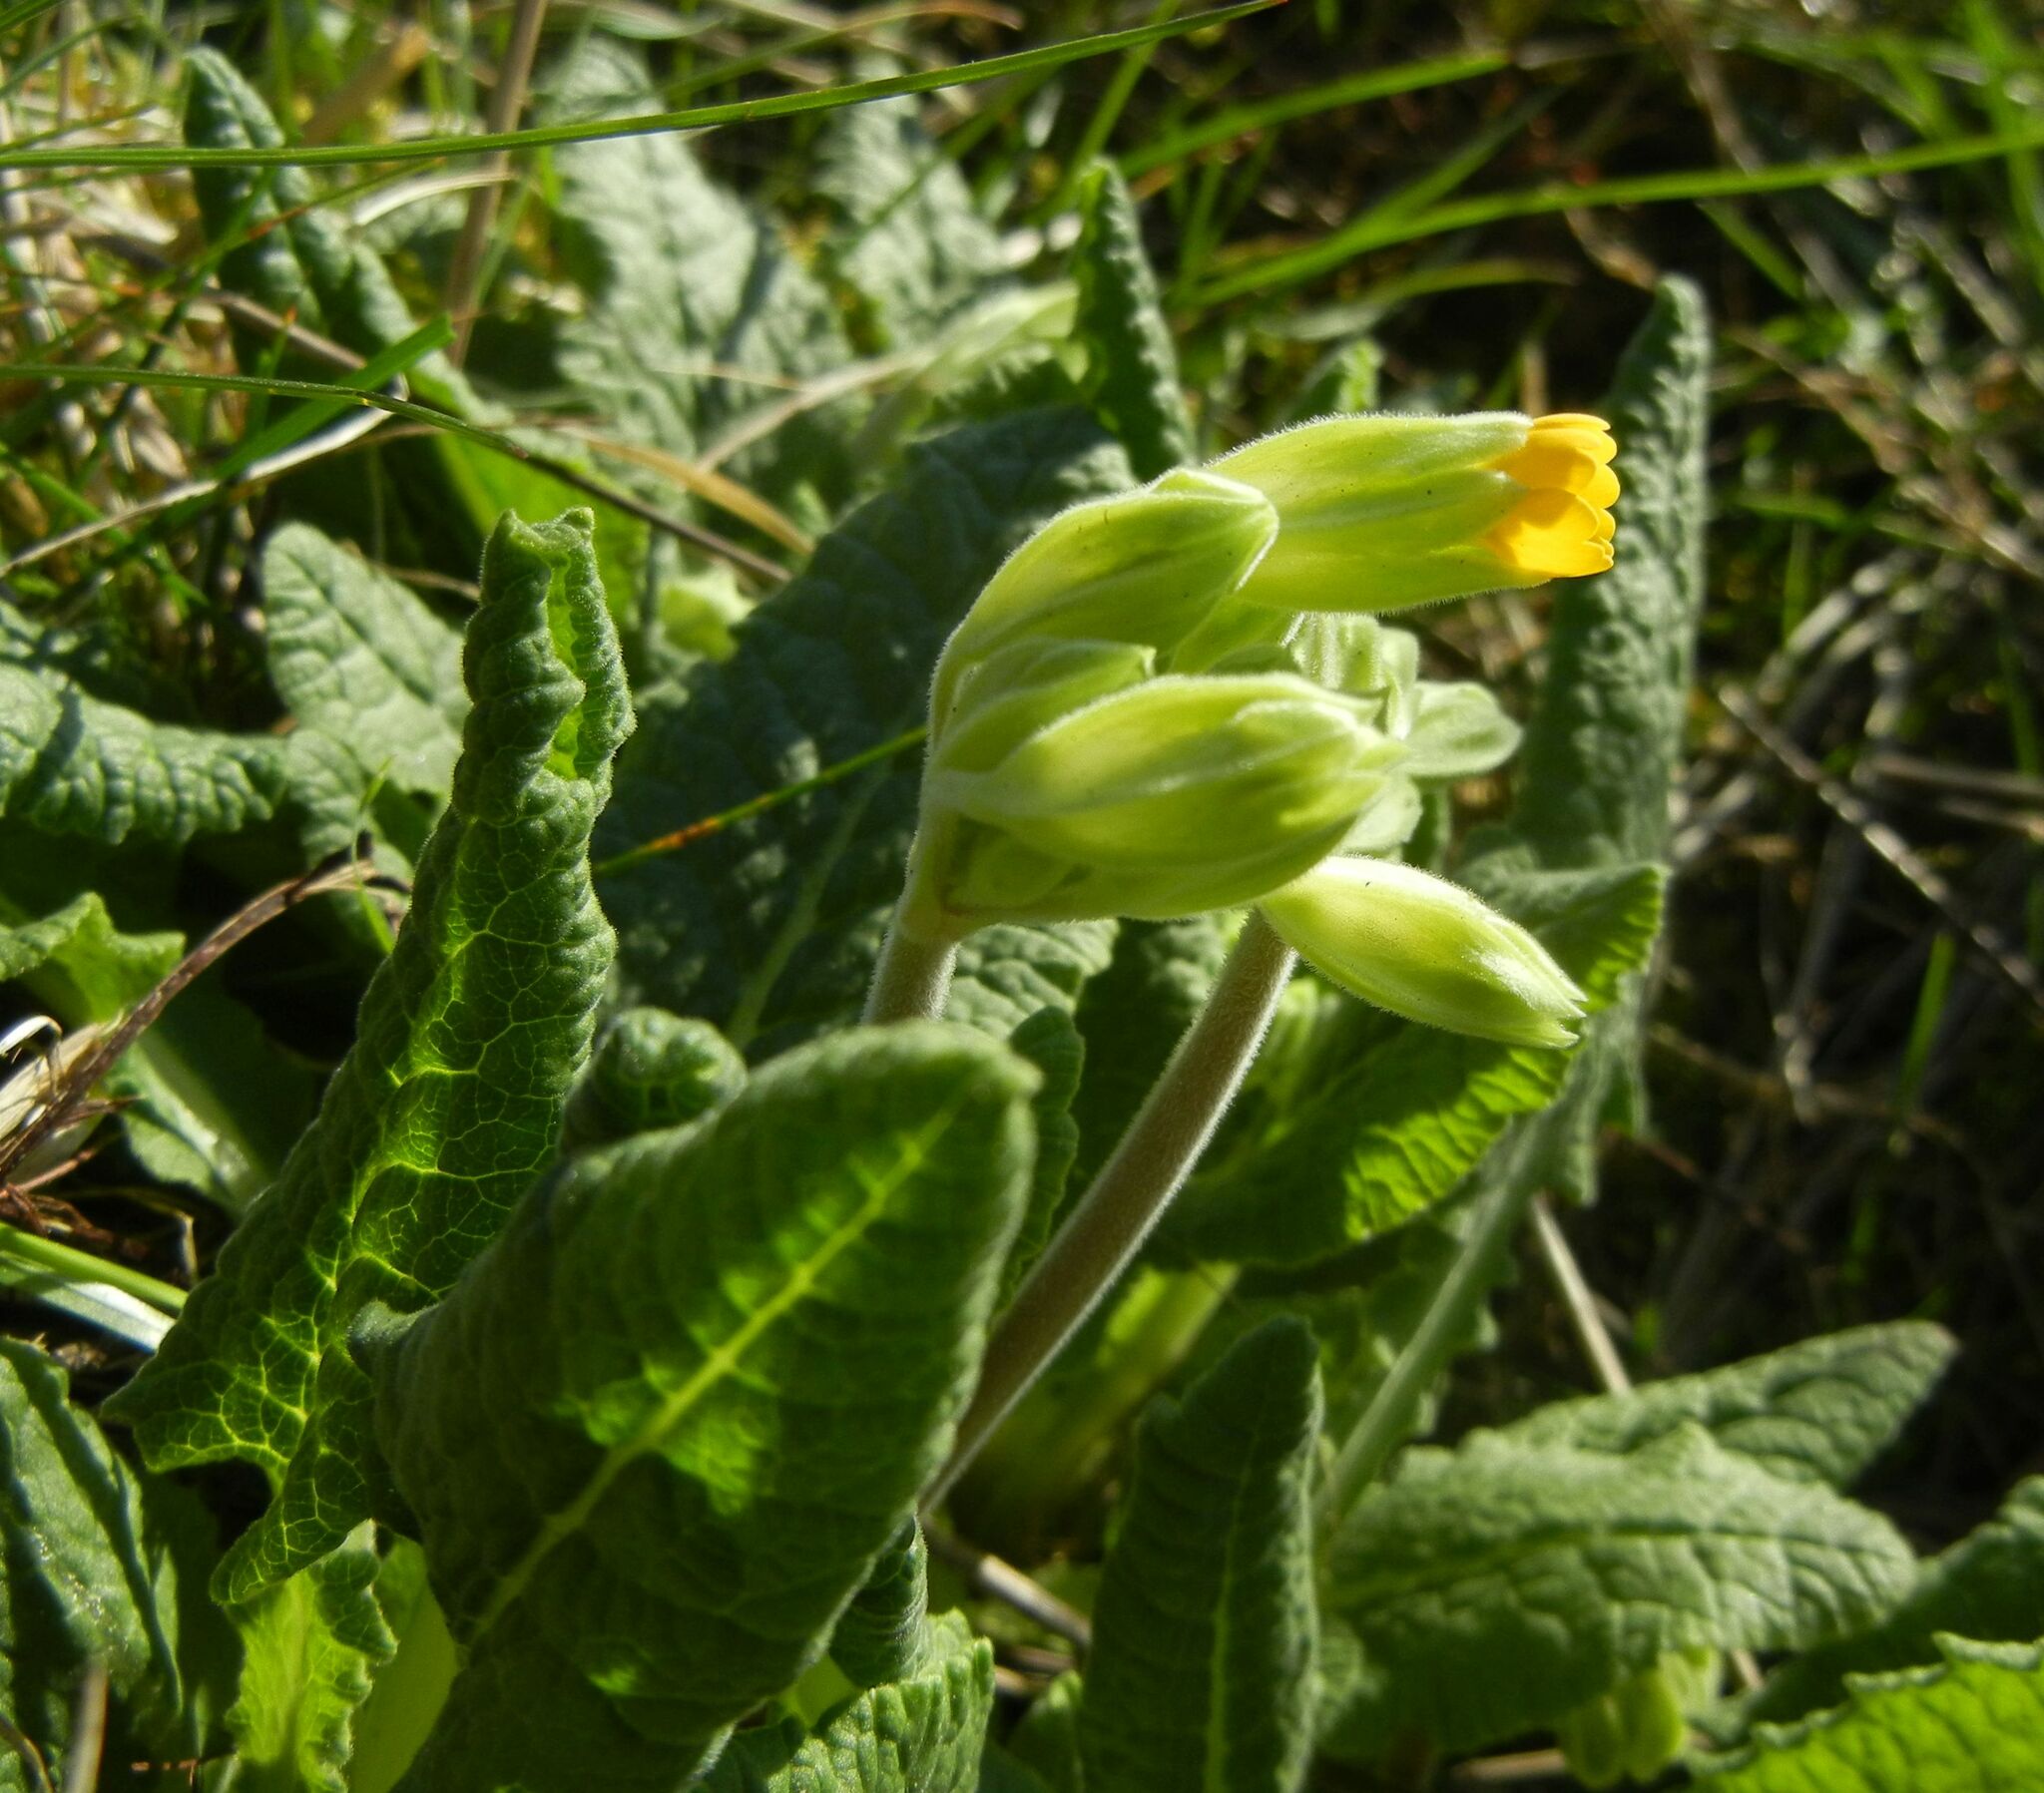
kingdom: Plantae
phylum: Tracheophyta
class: Magnoliopsida
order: Ericales
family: Primulaceae
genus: Primula
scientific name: Primula veris
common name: Cowslip
